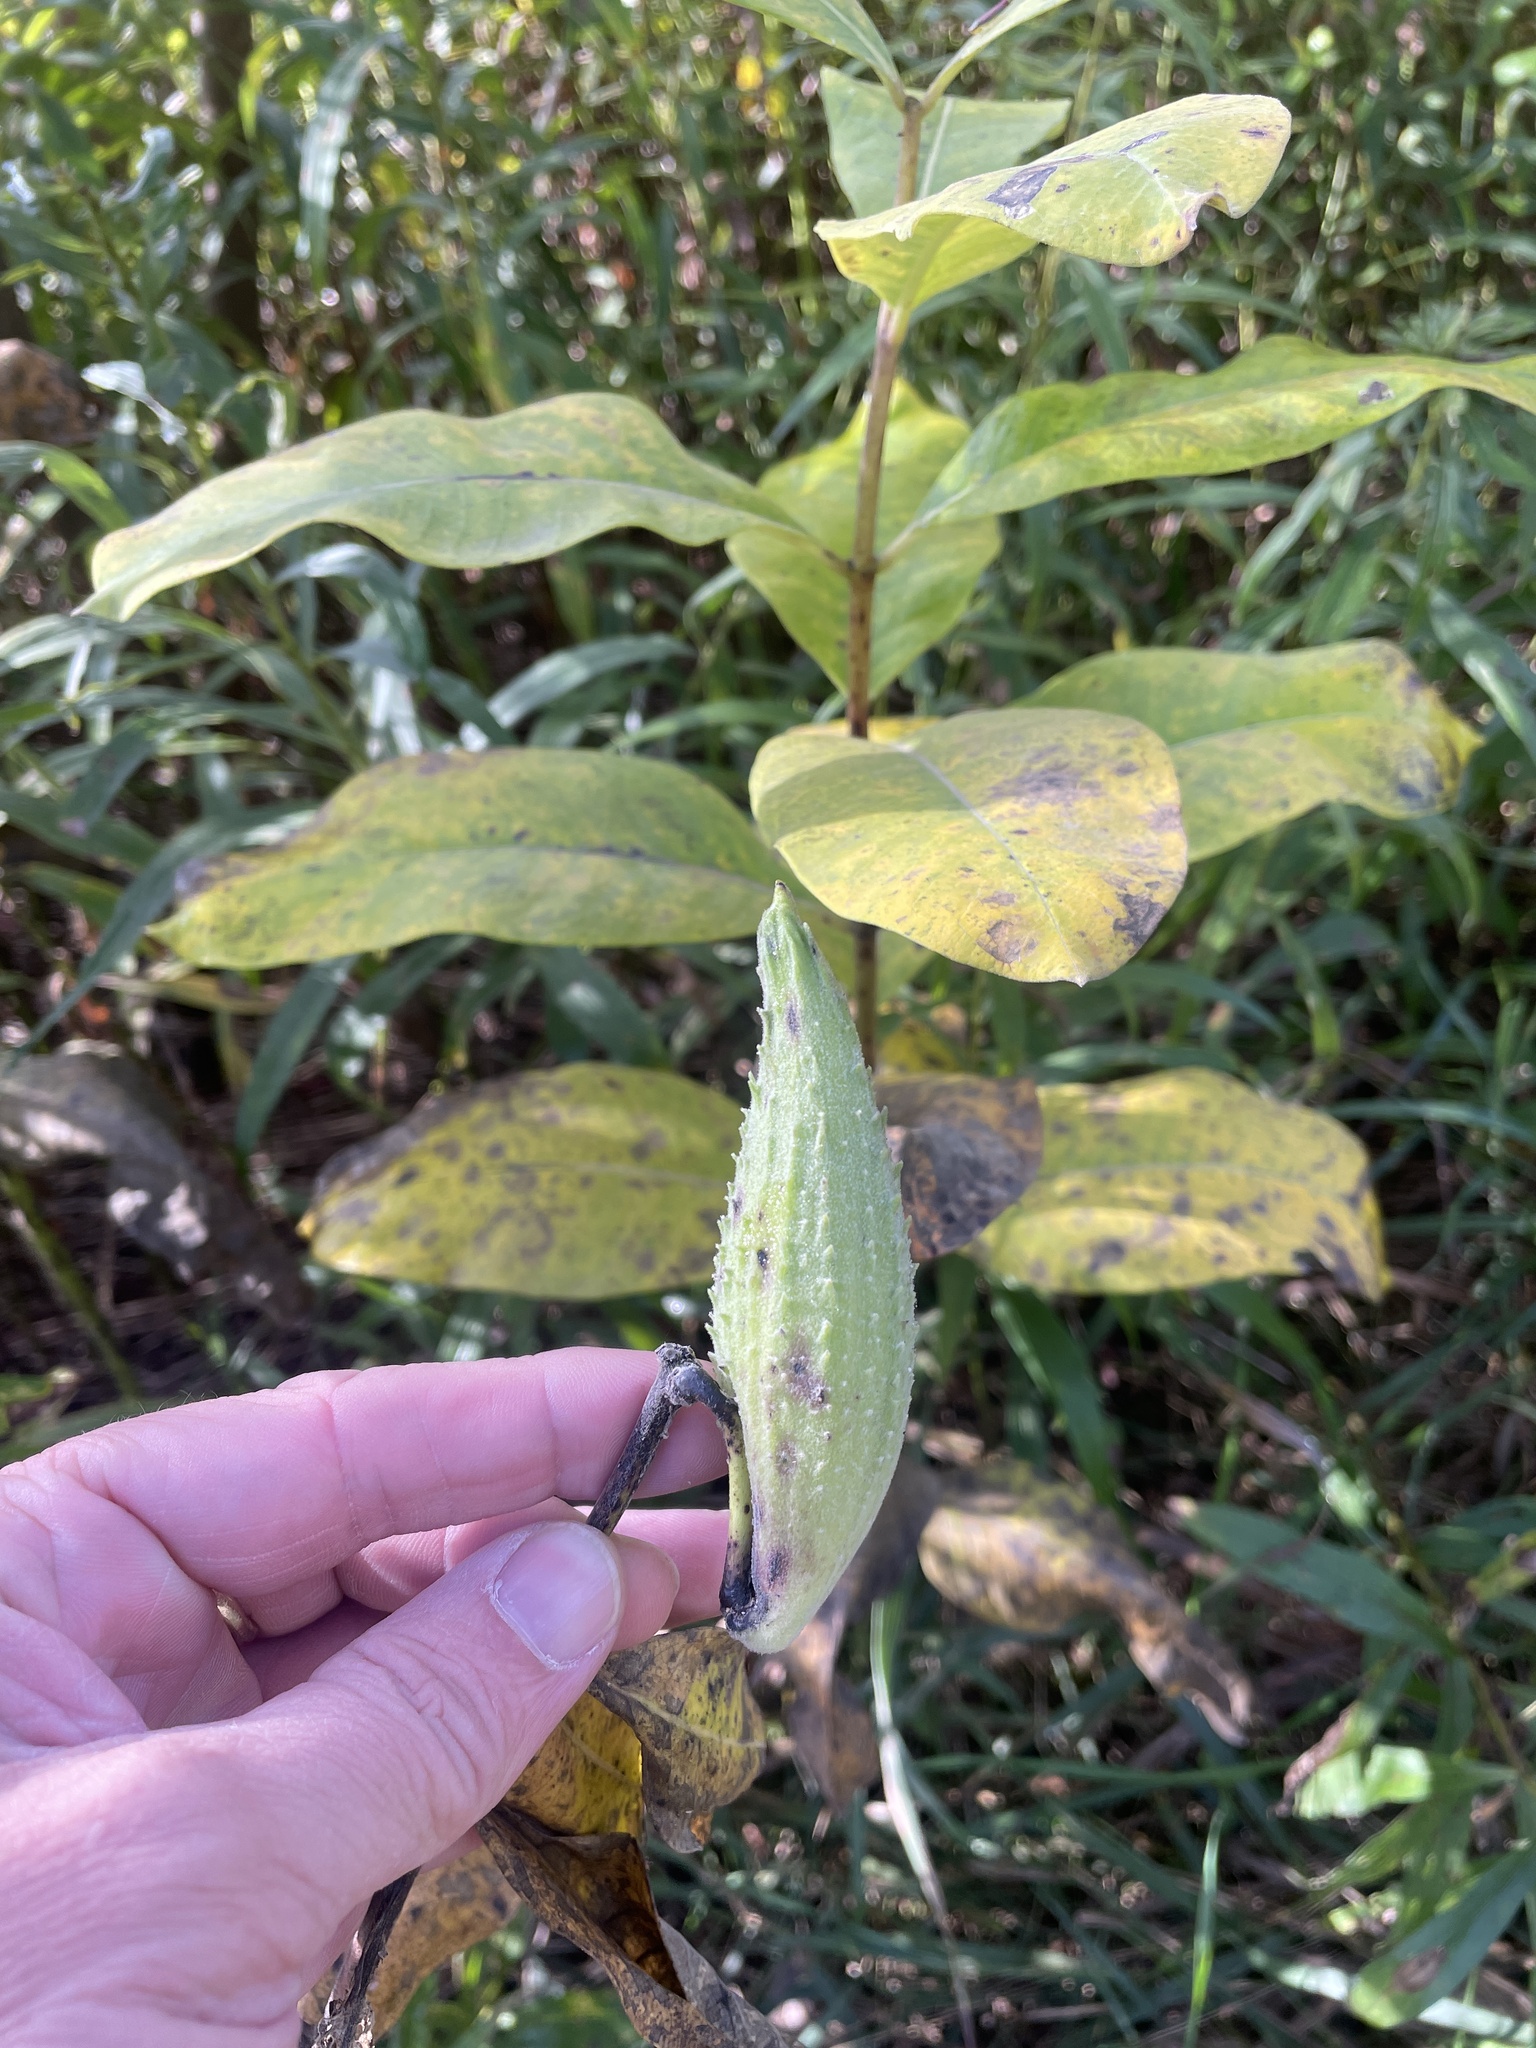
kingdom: Plantae
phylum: Tracheophyta
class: Magnoliopsida
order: Gentianales
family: Apocynaceae
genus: Asclepias
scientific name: Asclepias syriaca
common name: Common milkweed
